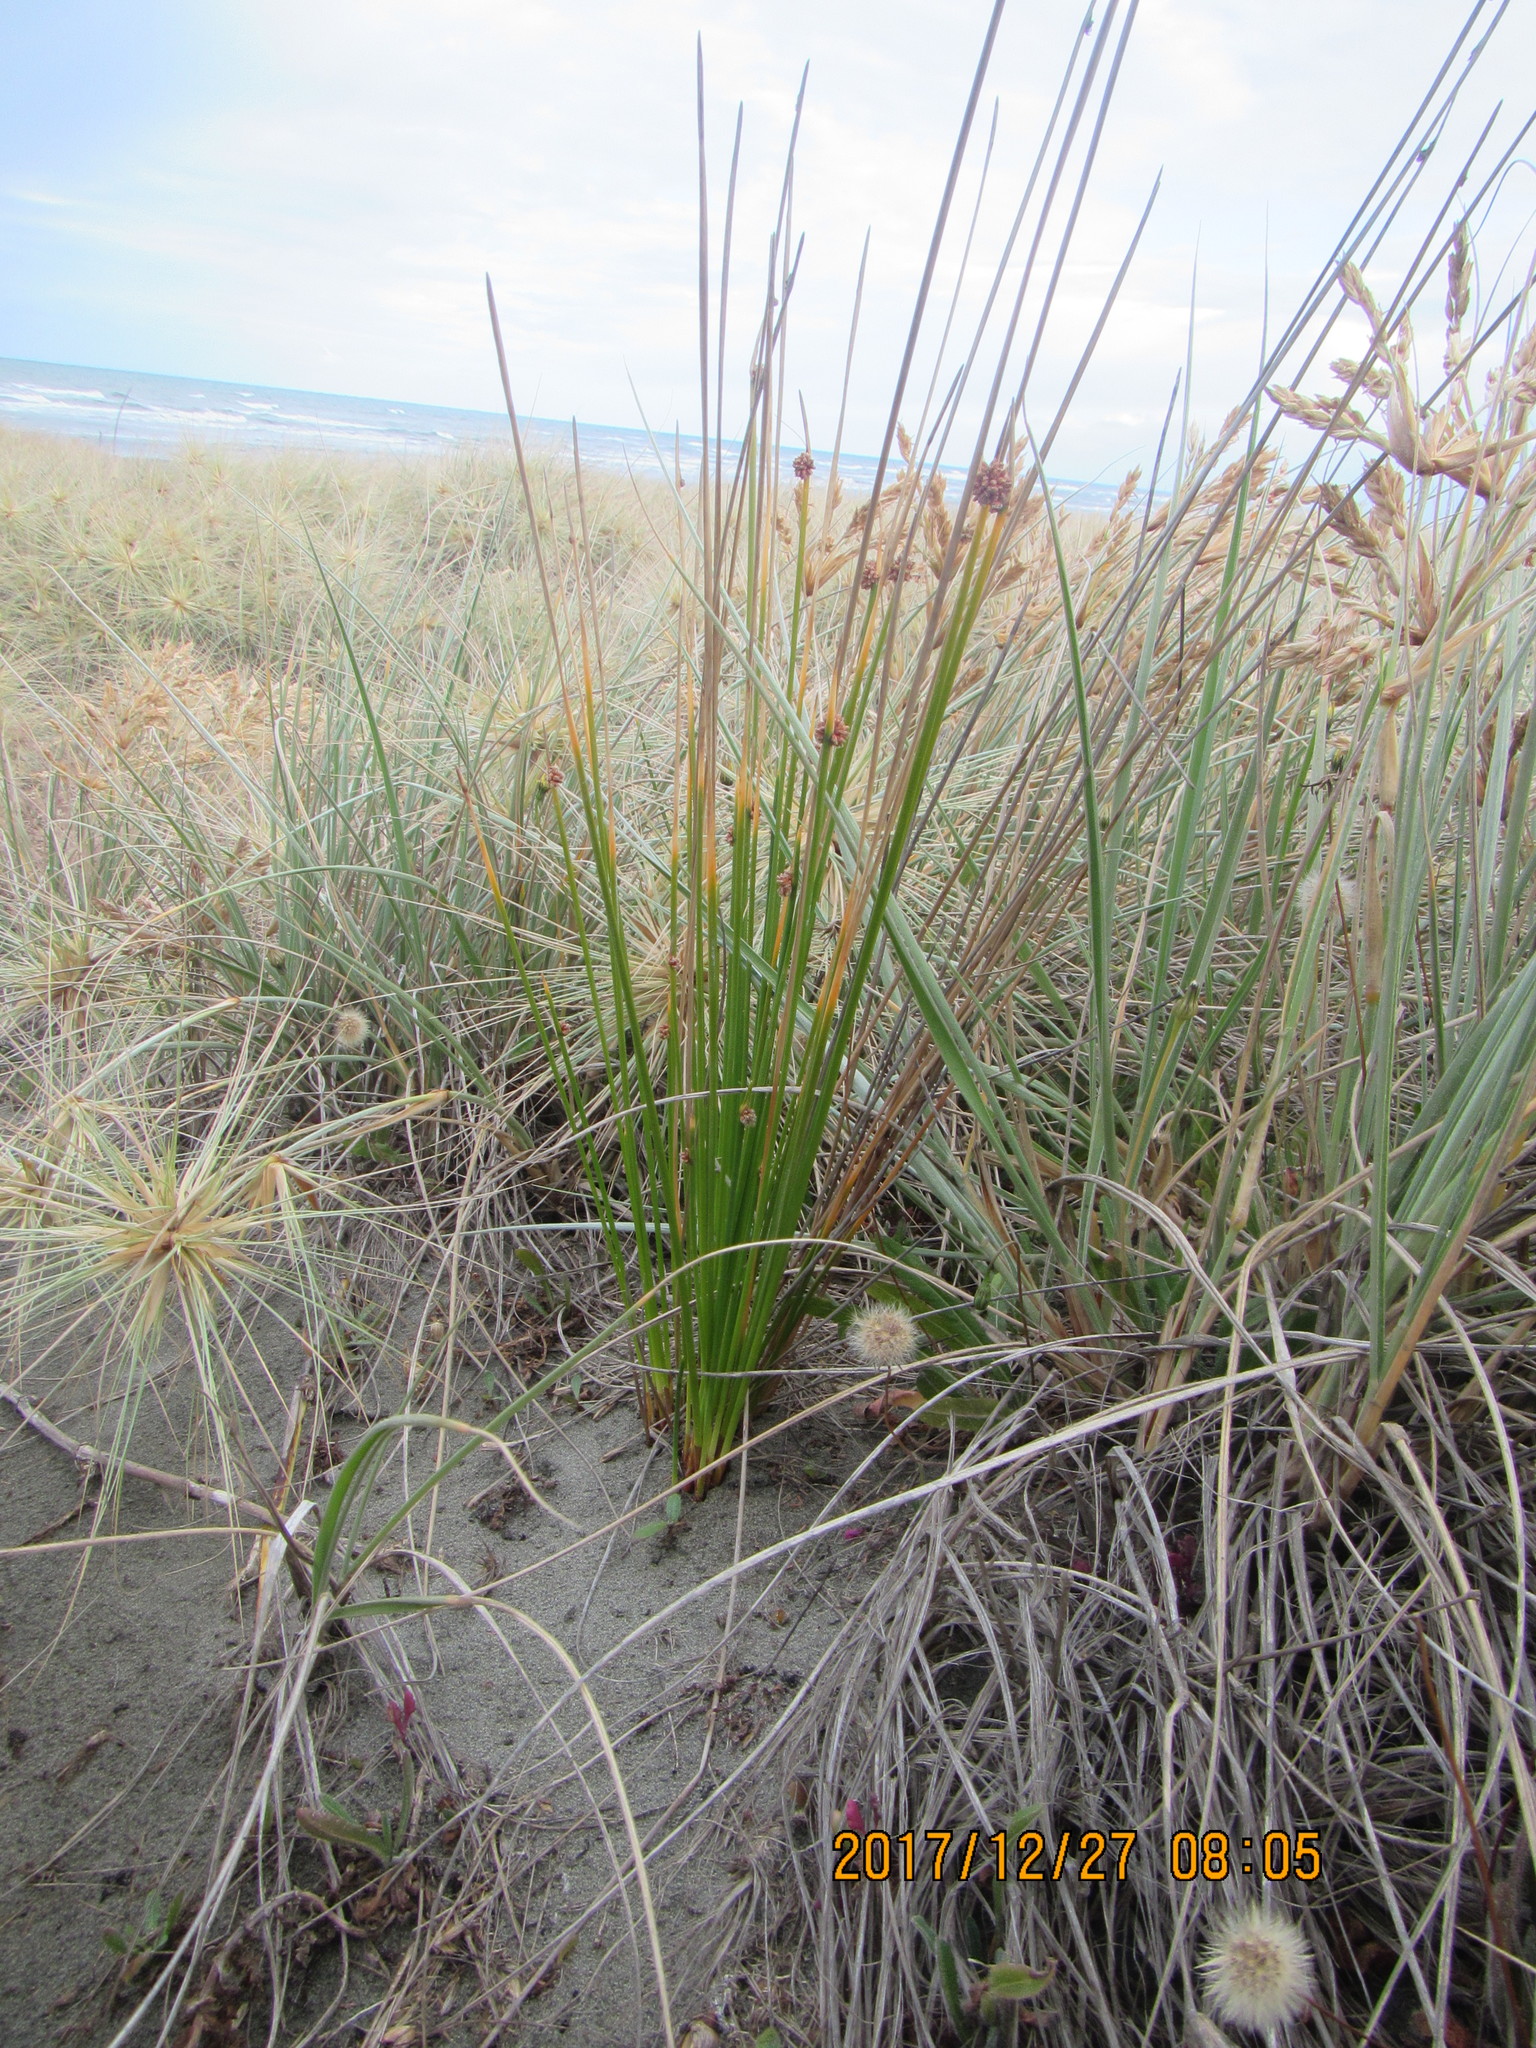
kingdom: Plantae
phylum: Tracheophyta
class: Liliopsida
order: Poales
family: Cyperaceae
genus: Ficinia
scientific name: Ficinia nodosa
